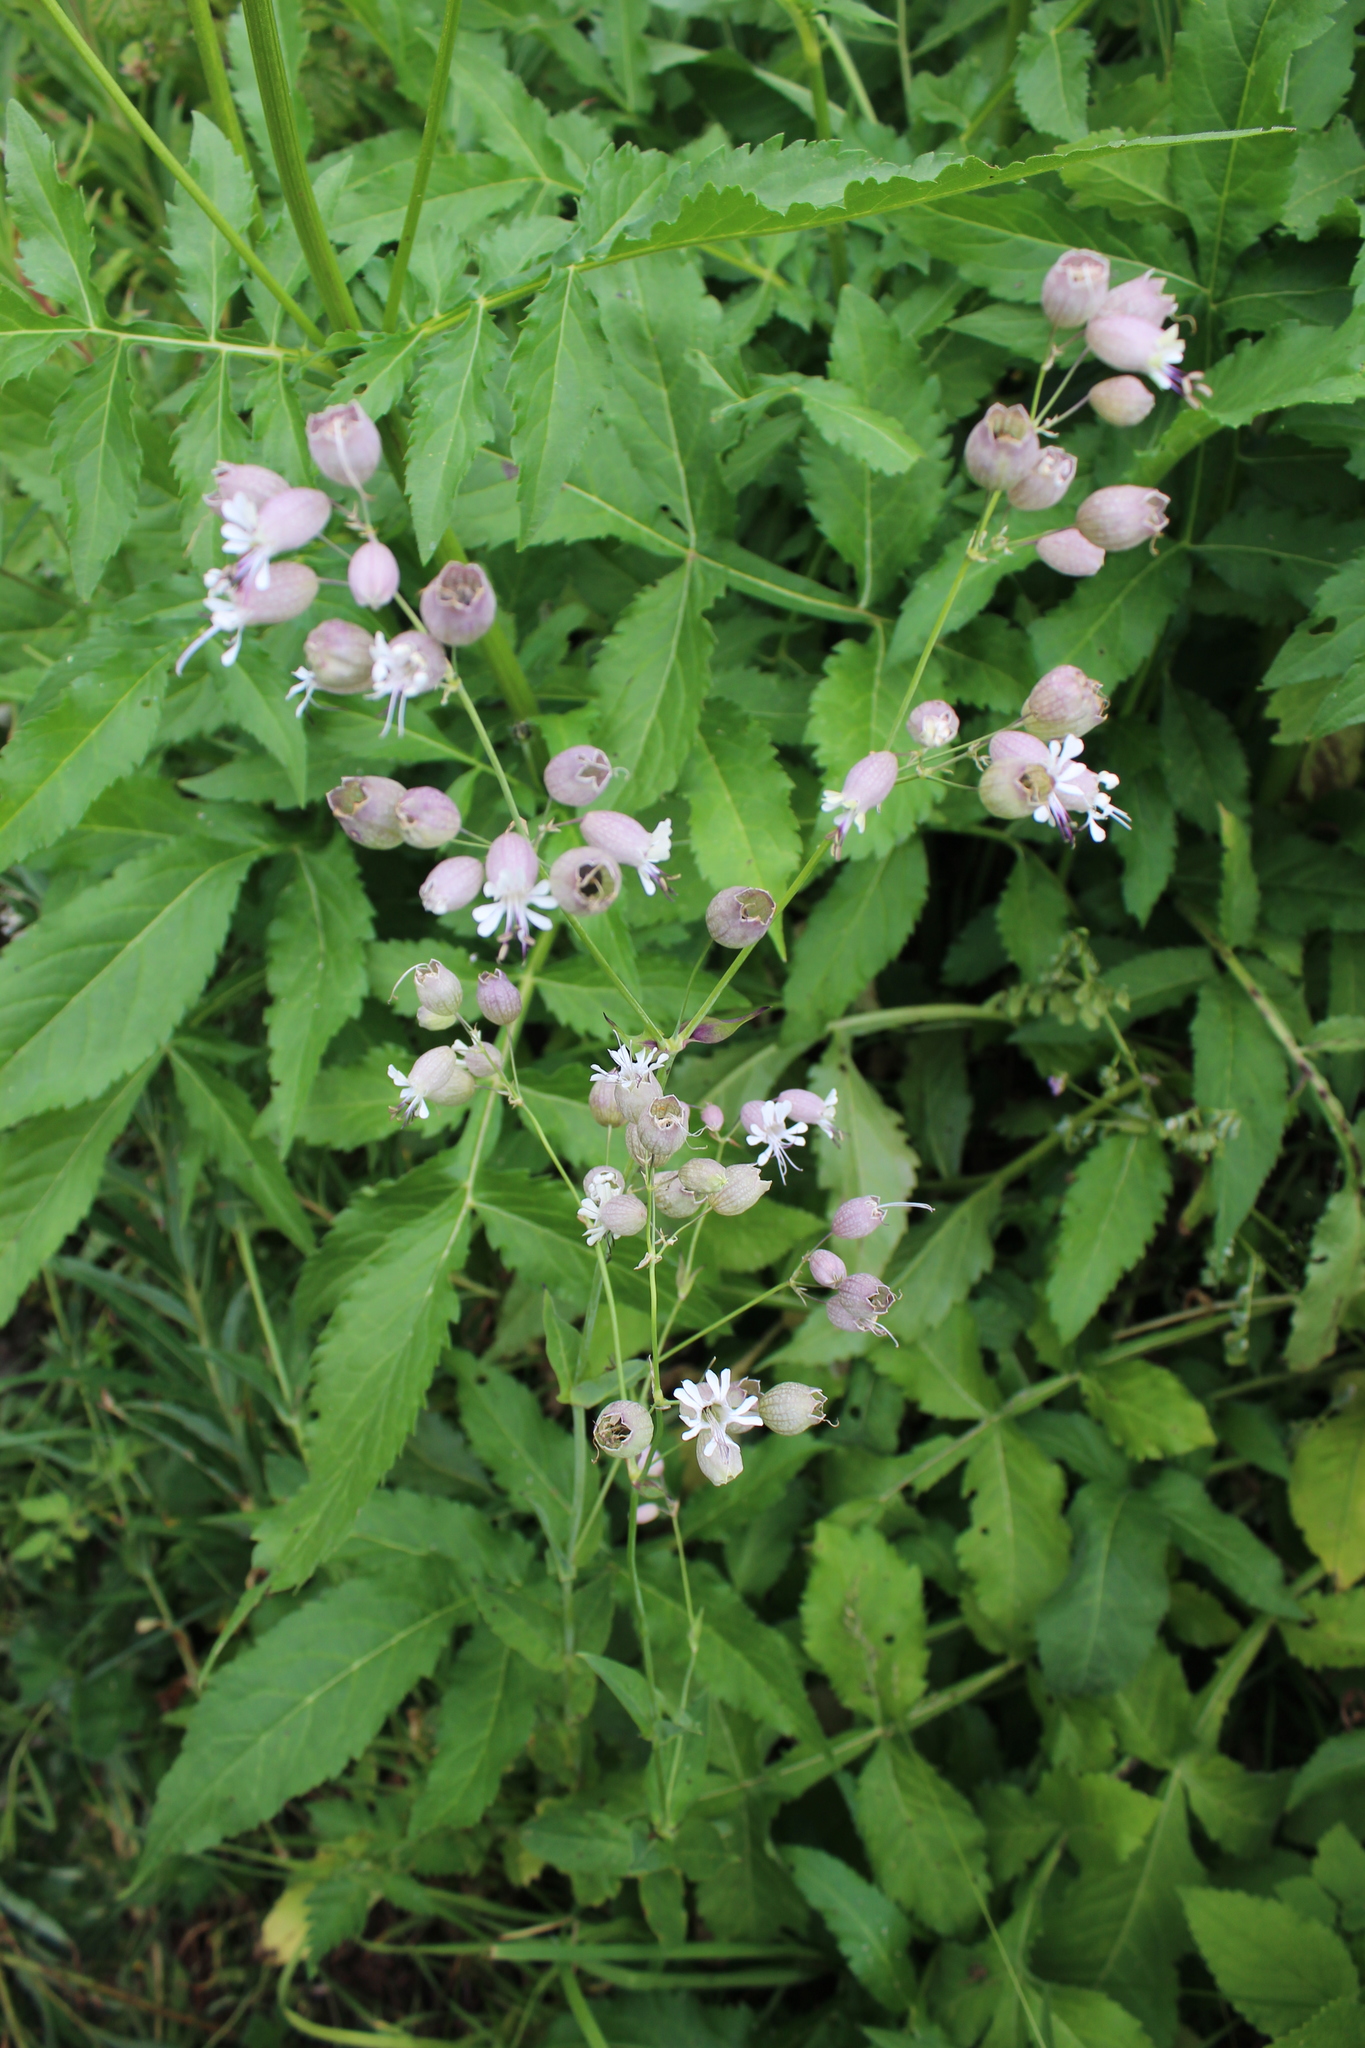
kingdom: Plantae
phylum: Tracheophyta
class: Magnoliopsida
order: Caryophyllales
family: Caryophyllaceae
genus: Silene
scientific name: Silene vulgaris
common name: Bladder campion
